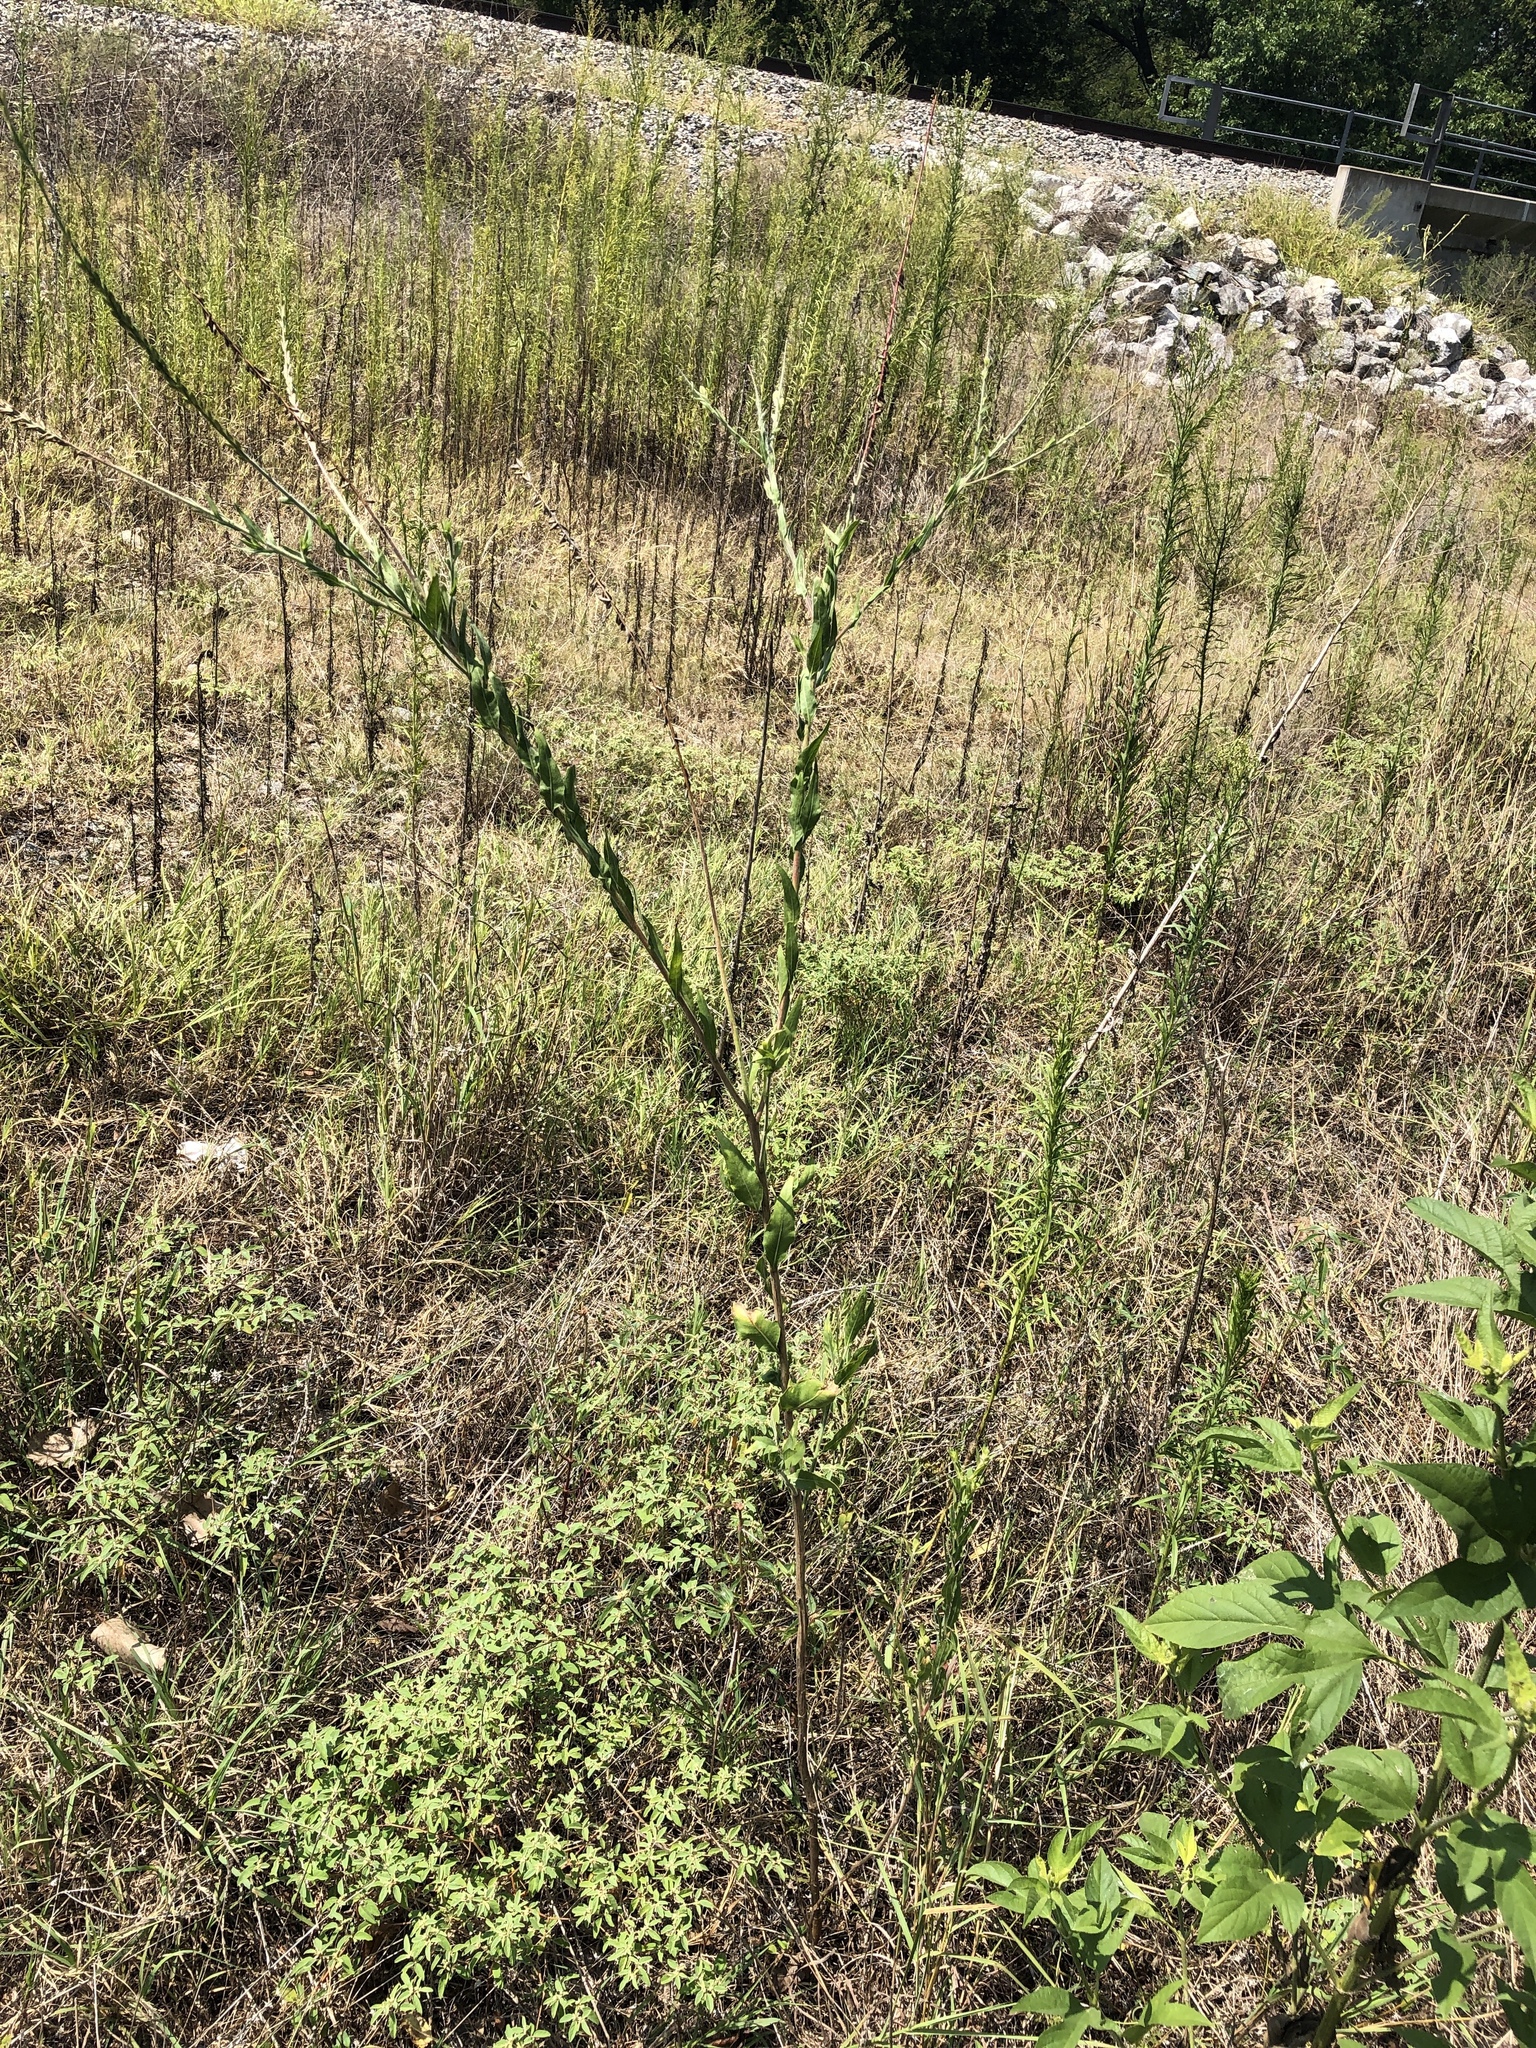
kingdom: Plantae
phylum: Tracheophyta
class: Magnoliopsida
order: Myrtales
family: Onagraceae
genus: Oenothera
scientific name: Oenothera curtiflora
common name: Velvetweed
